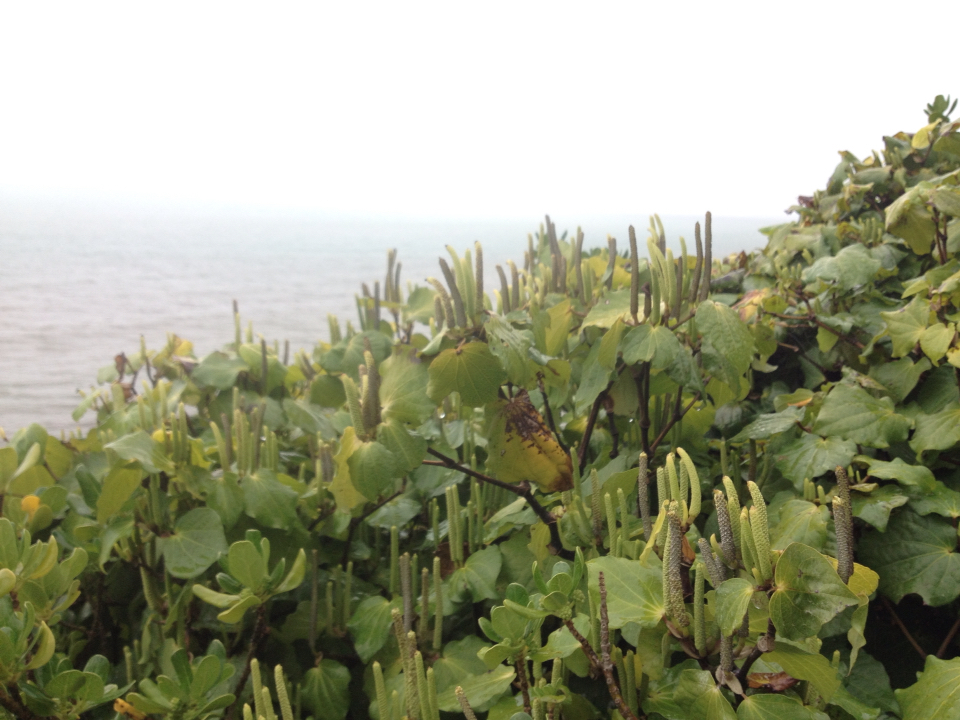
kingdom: Plantae
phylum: Tracheophyta
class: Magnoliopsida
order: Piperales
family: Piperaceae
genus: Macropiper
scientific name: Macropiper excelsum
